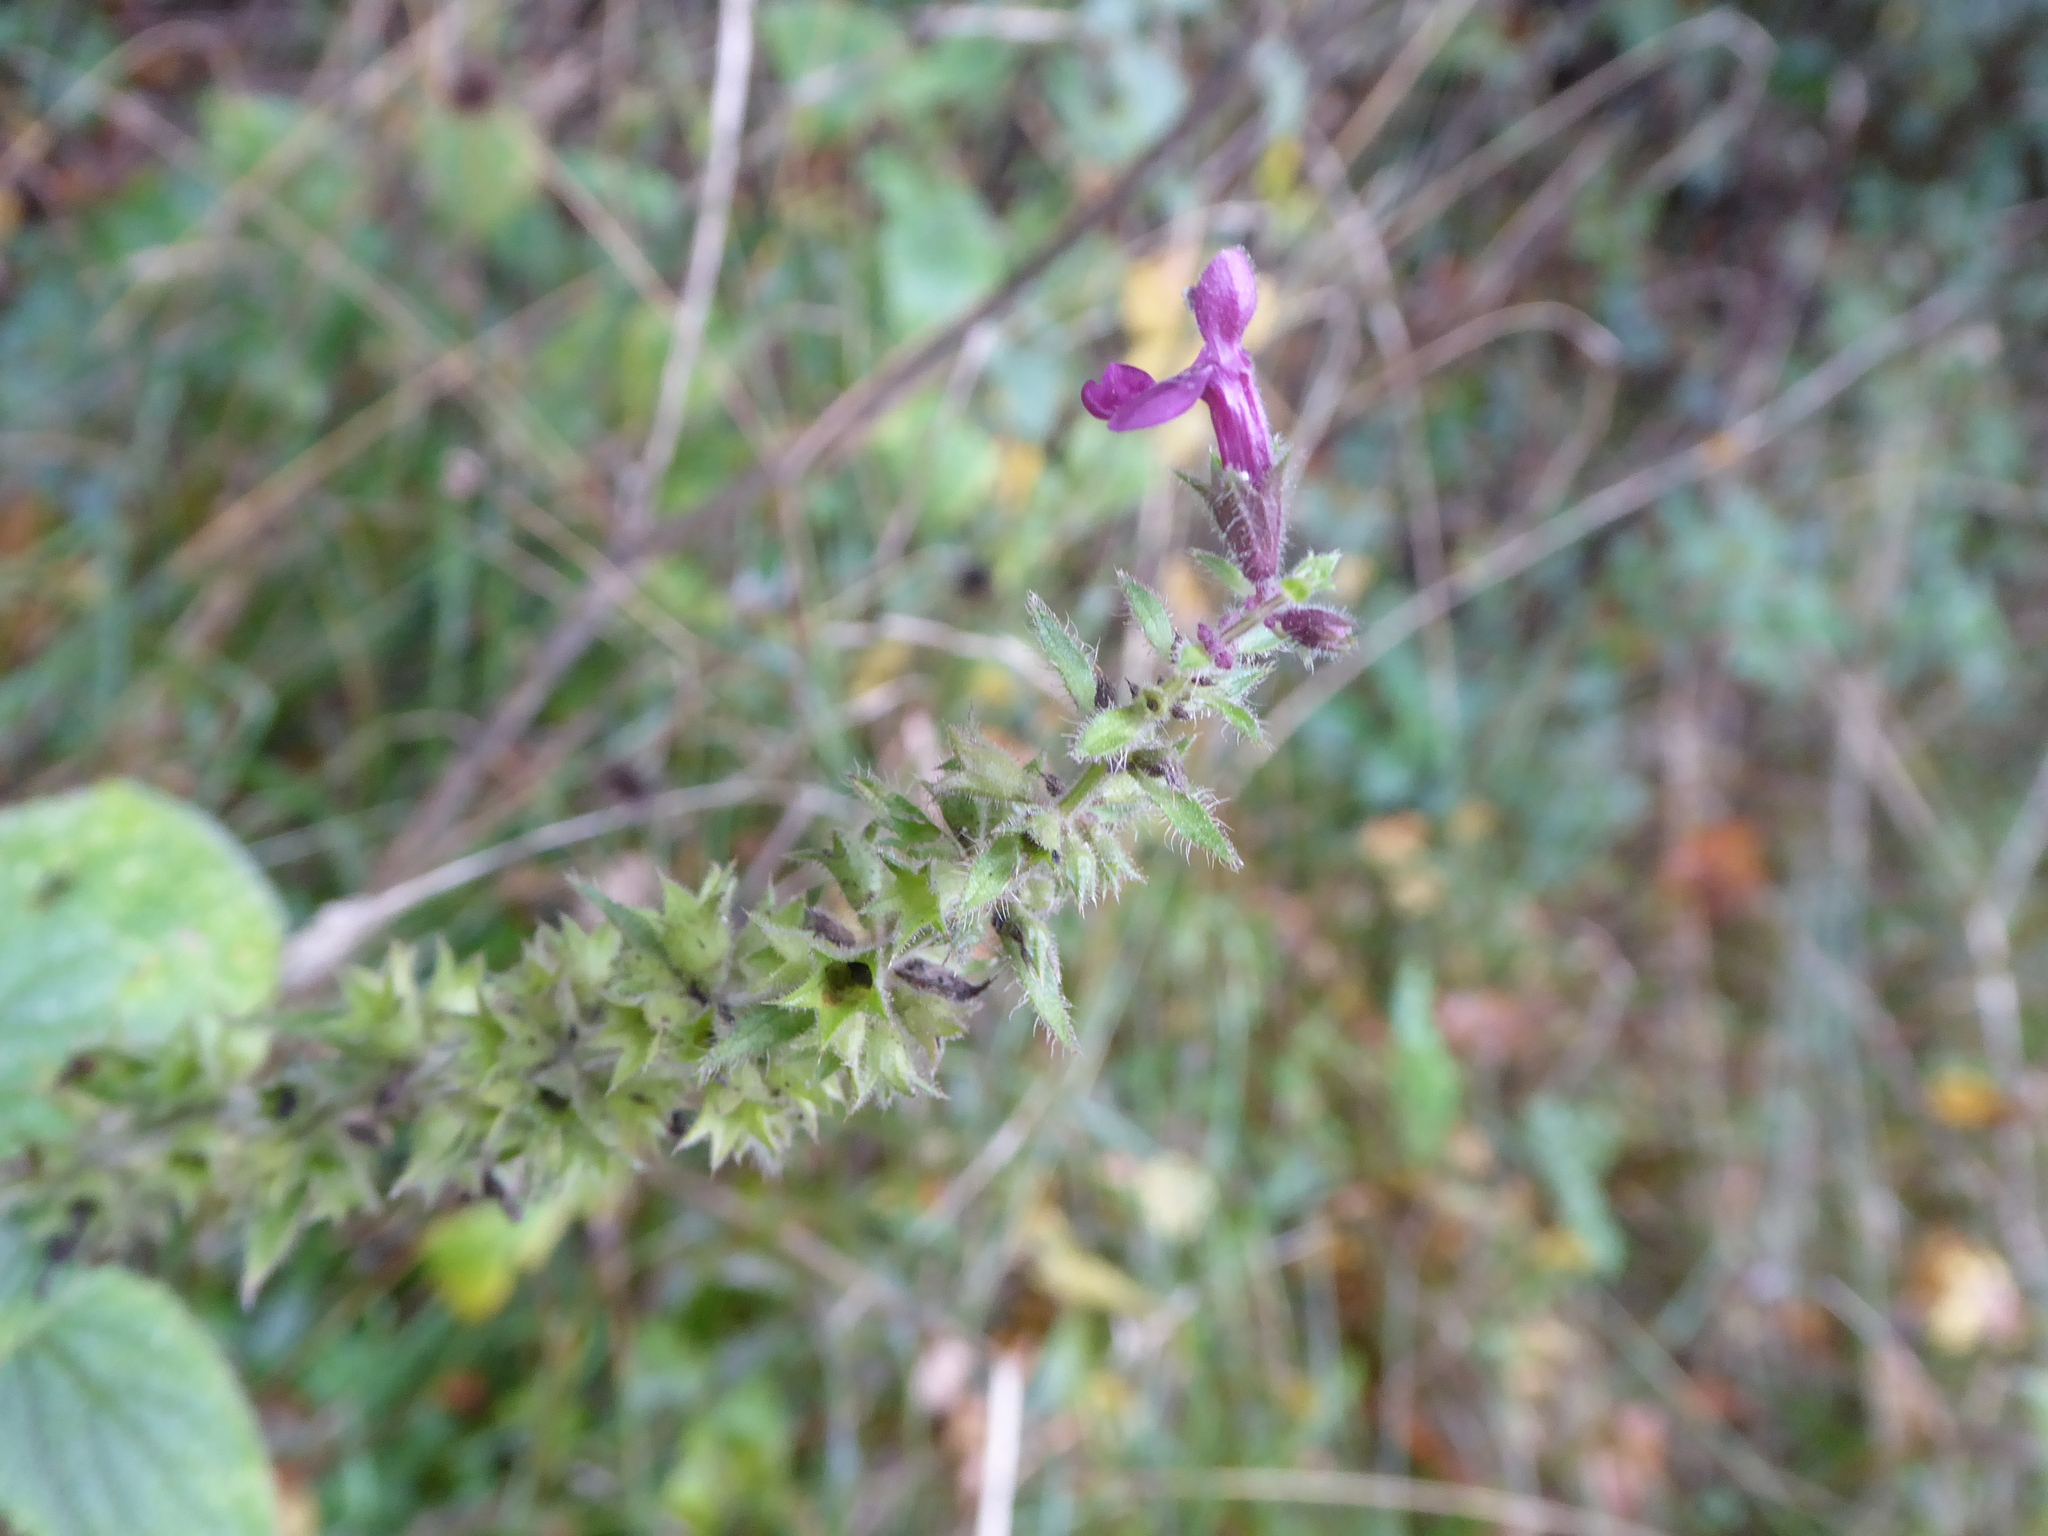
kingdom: Plantae
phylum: Tracheophyta
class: Magnoliopsida
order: Lamiales
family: Lamiaceae
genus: Stachys
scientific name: Stachys sylvatica
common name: Hedge woundwort
